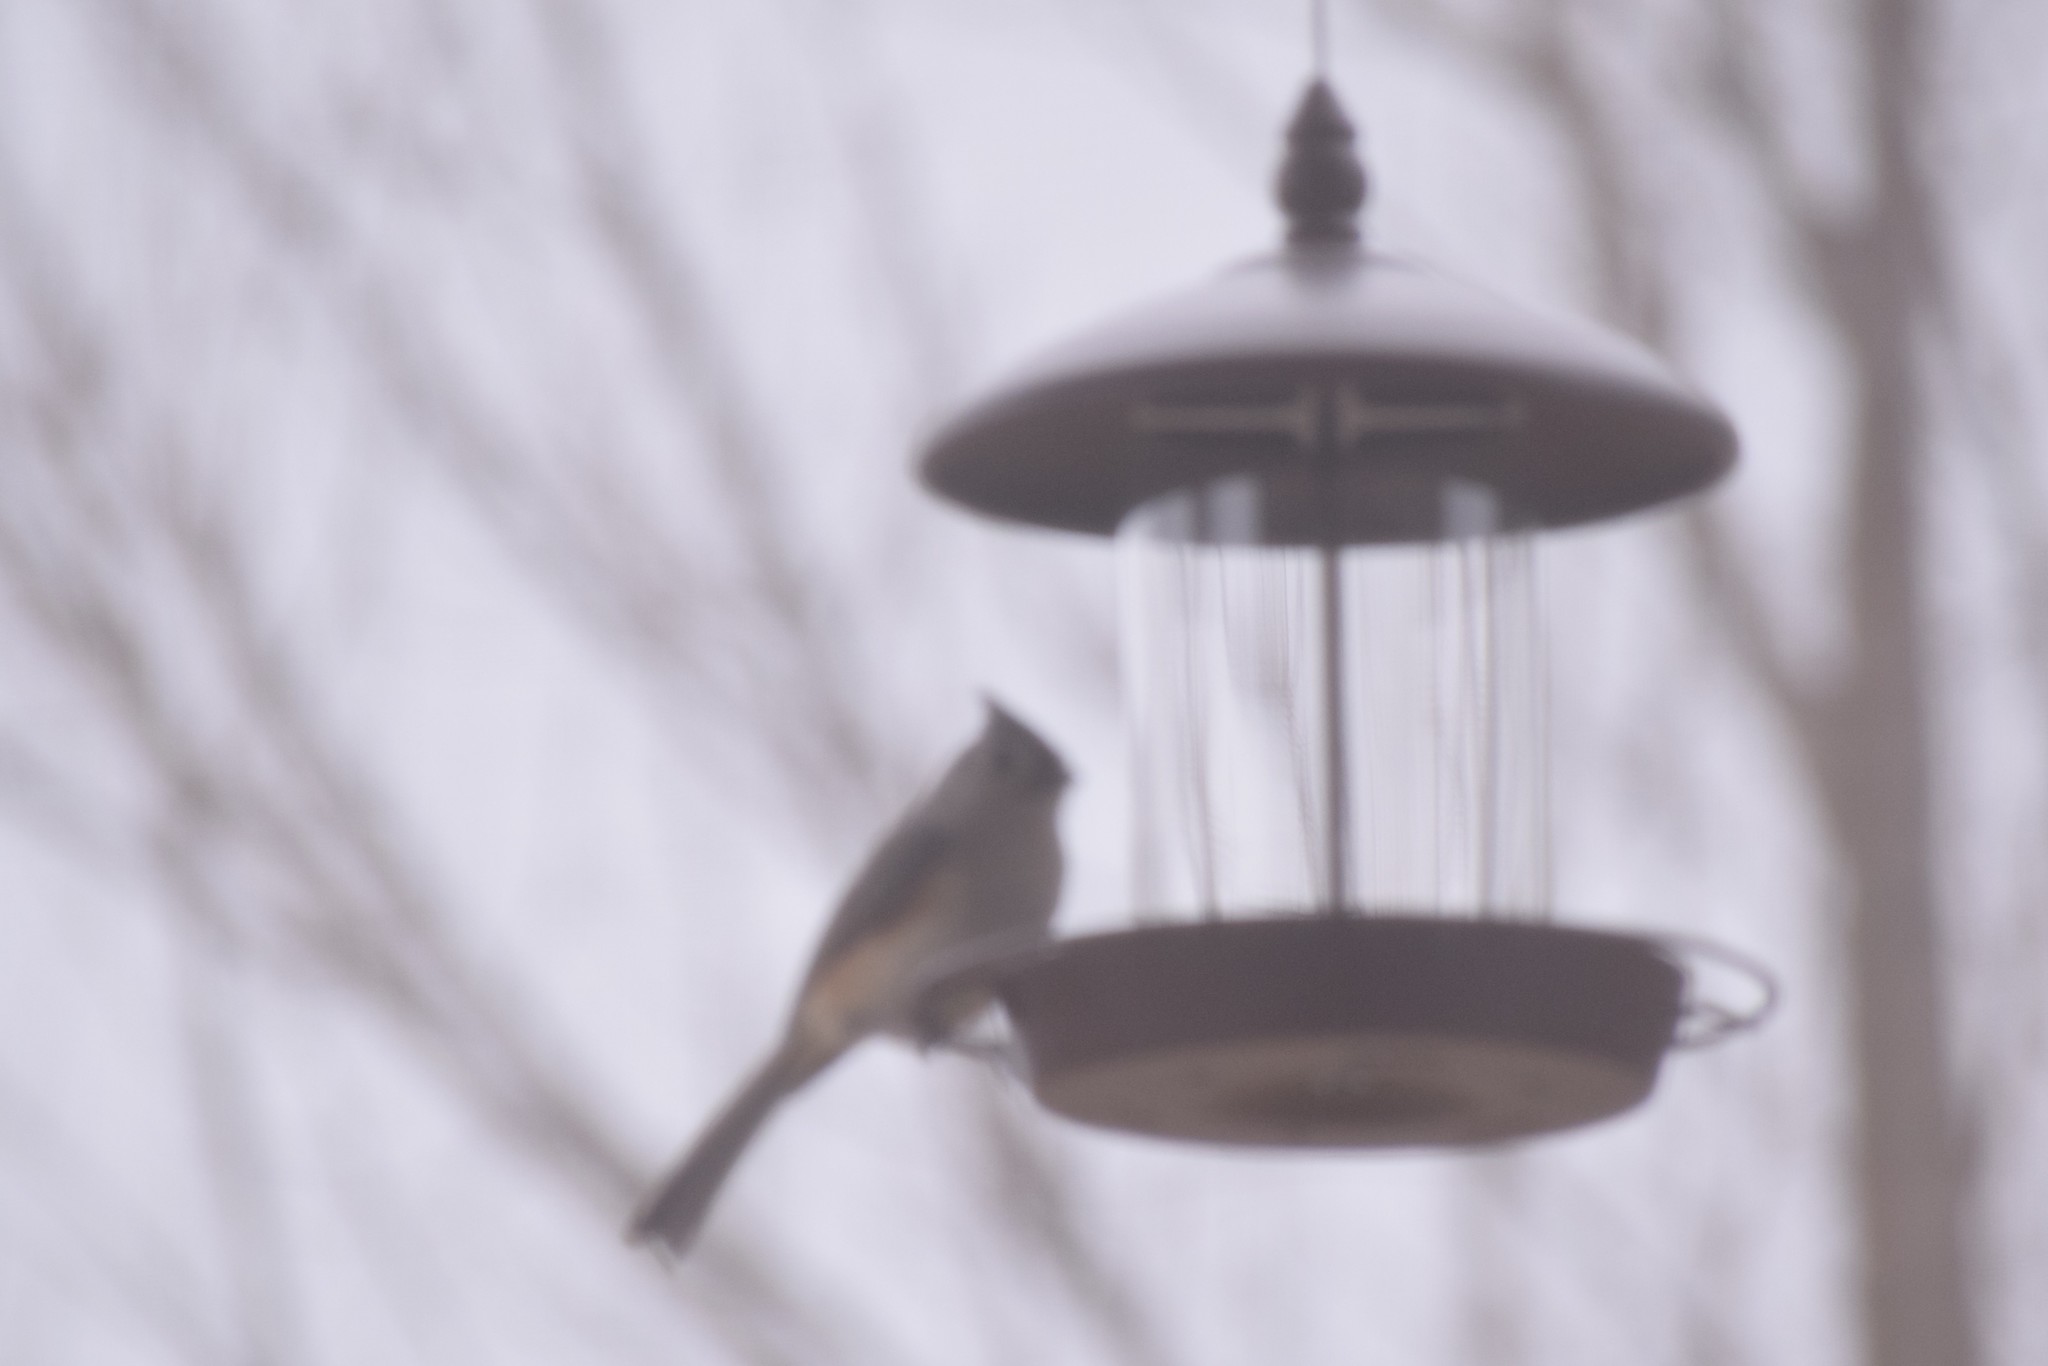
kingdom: Animalia
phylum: Chordata
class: Aves
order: Passeriformes
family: Paridae
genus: Baeolophus
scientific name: Baeolophus bicolor
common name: Tufted titmouse
